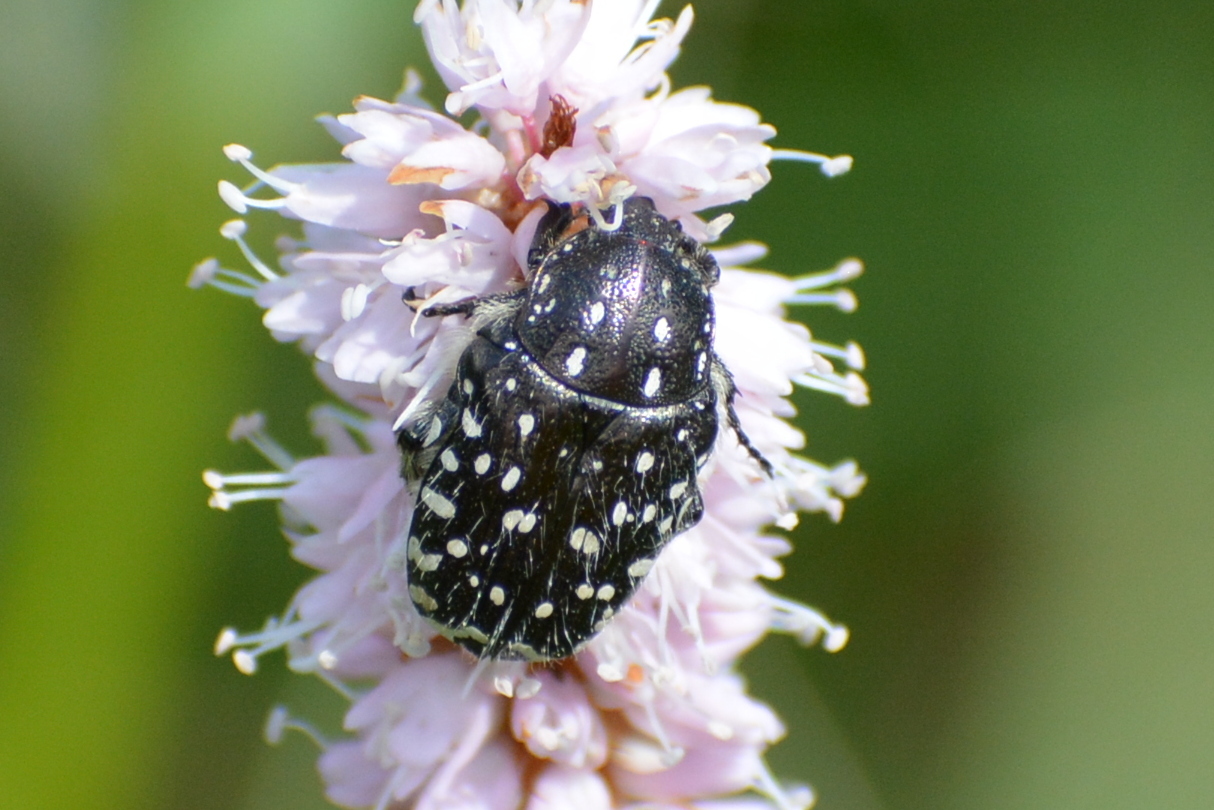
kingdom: Animalia
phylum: Arthropoda
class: Insecta
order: Coleoptera
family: Scarabaeidae
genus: Oxythyrea
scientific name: Oxythyrea funesta
